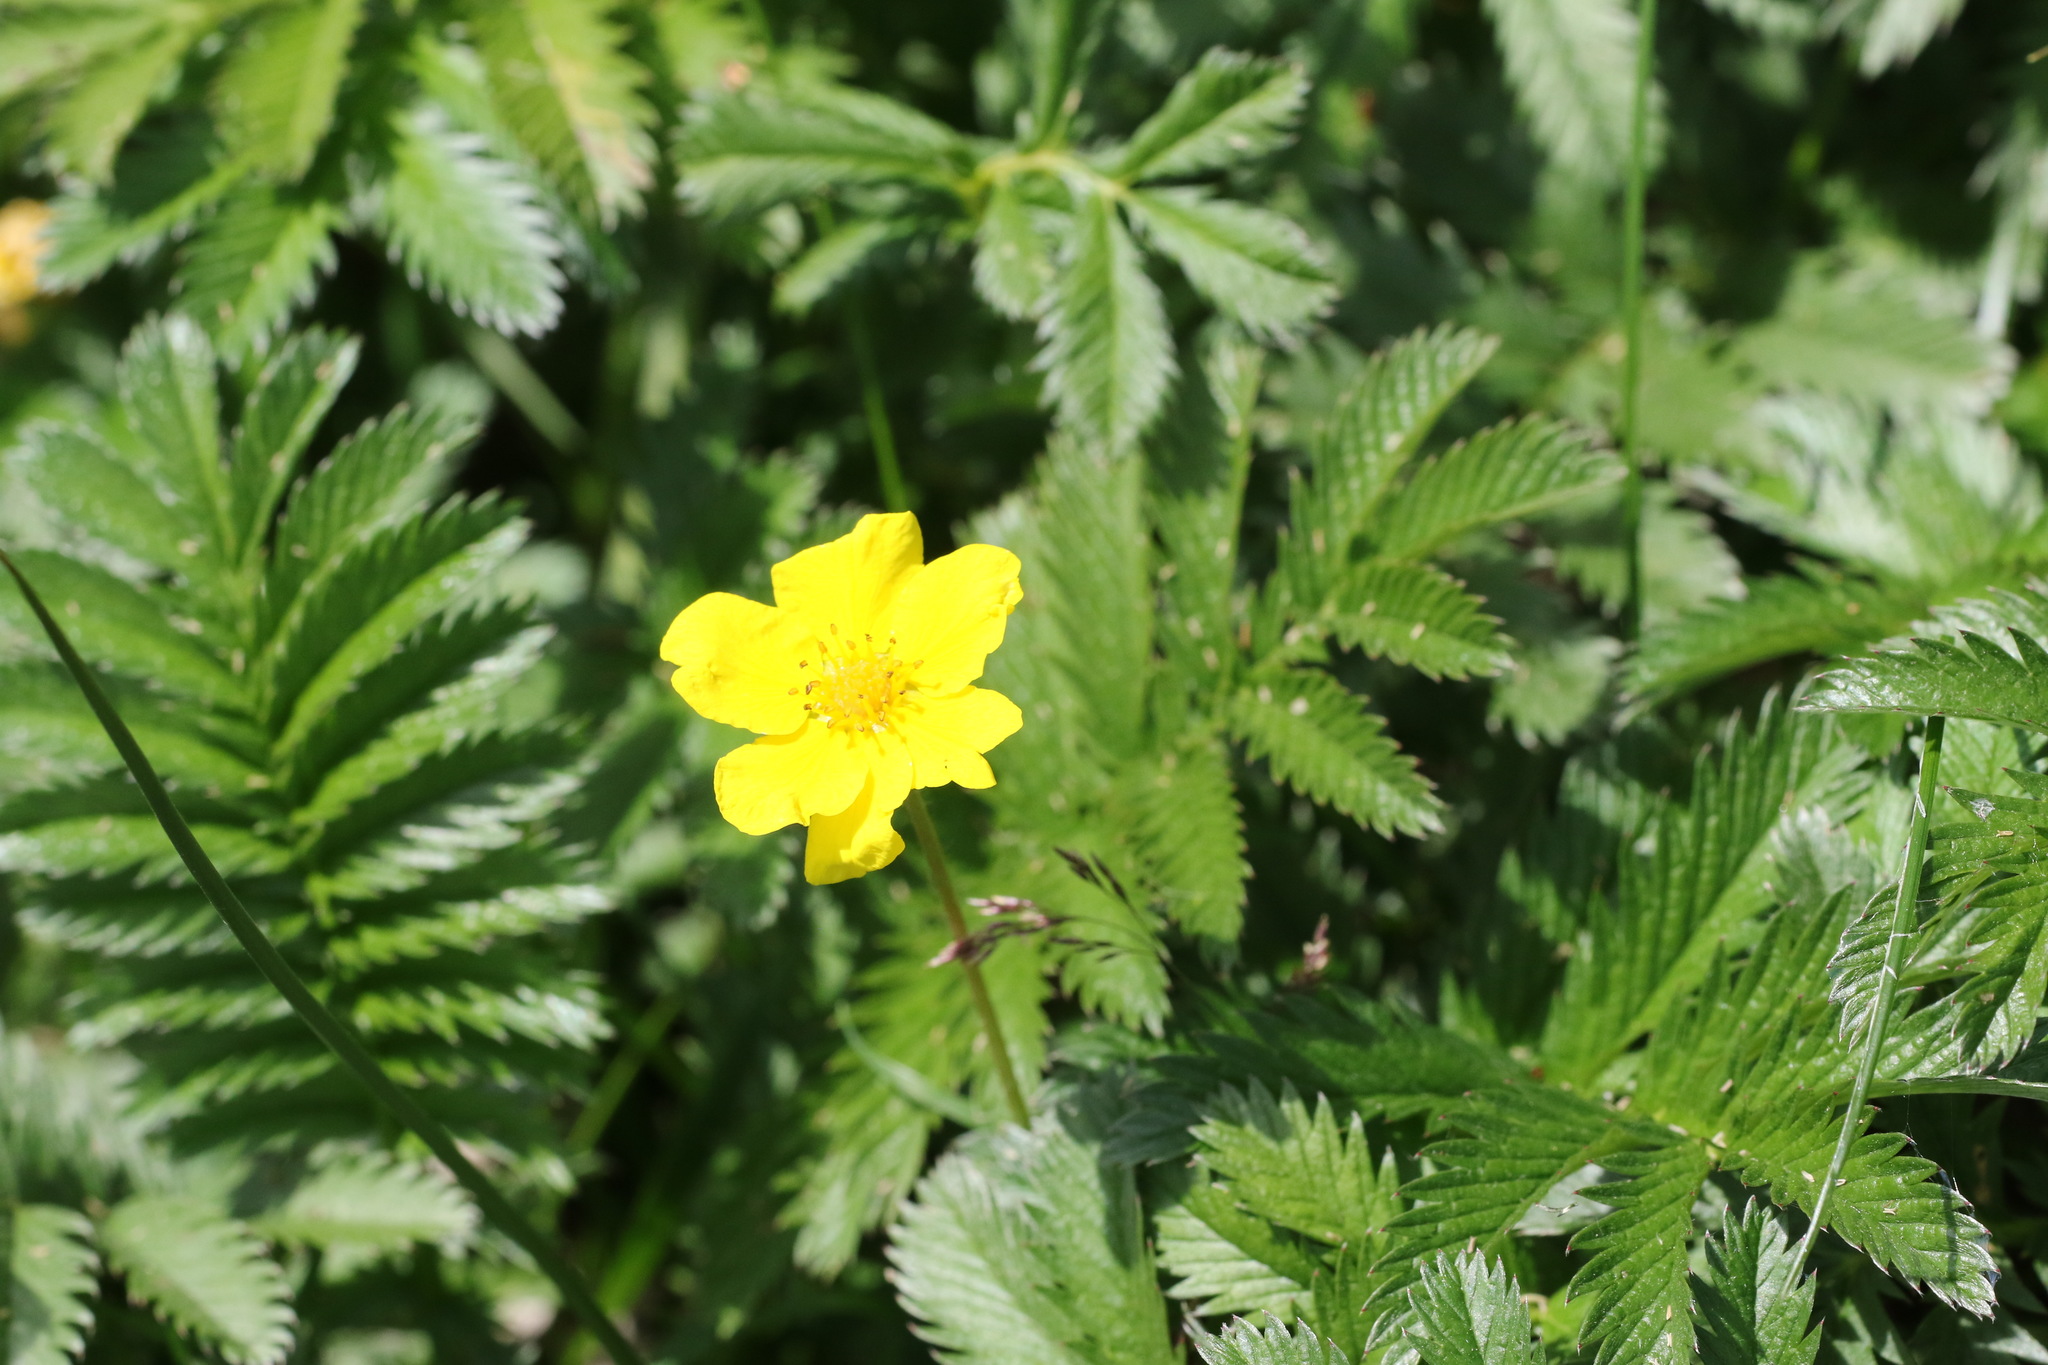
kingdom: Plantae
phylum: Tracheophyta
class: Magnoliopsida
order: Rosales
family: Rosaceae
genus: Argentina
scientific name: Argentina anserina
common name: Common silverweed
